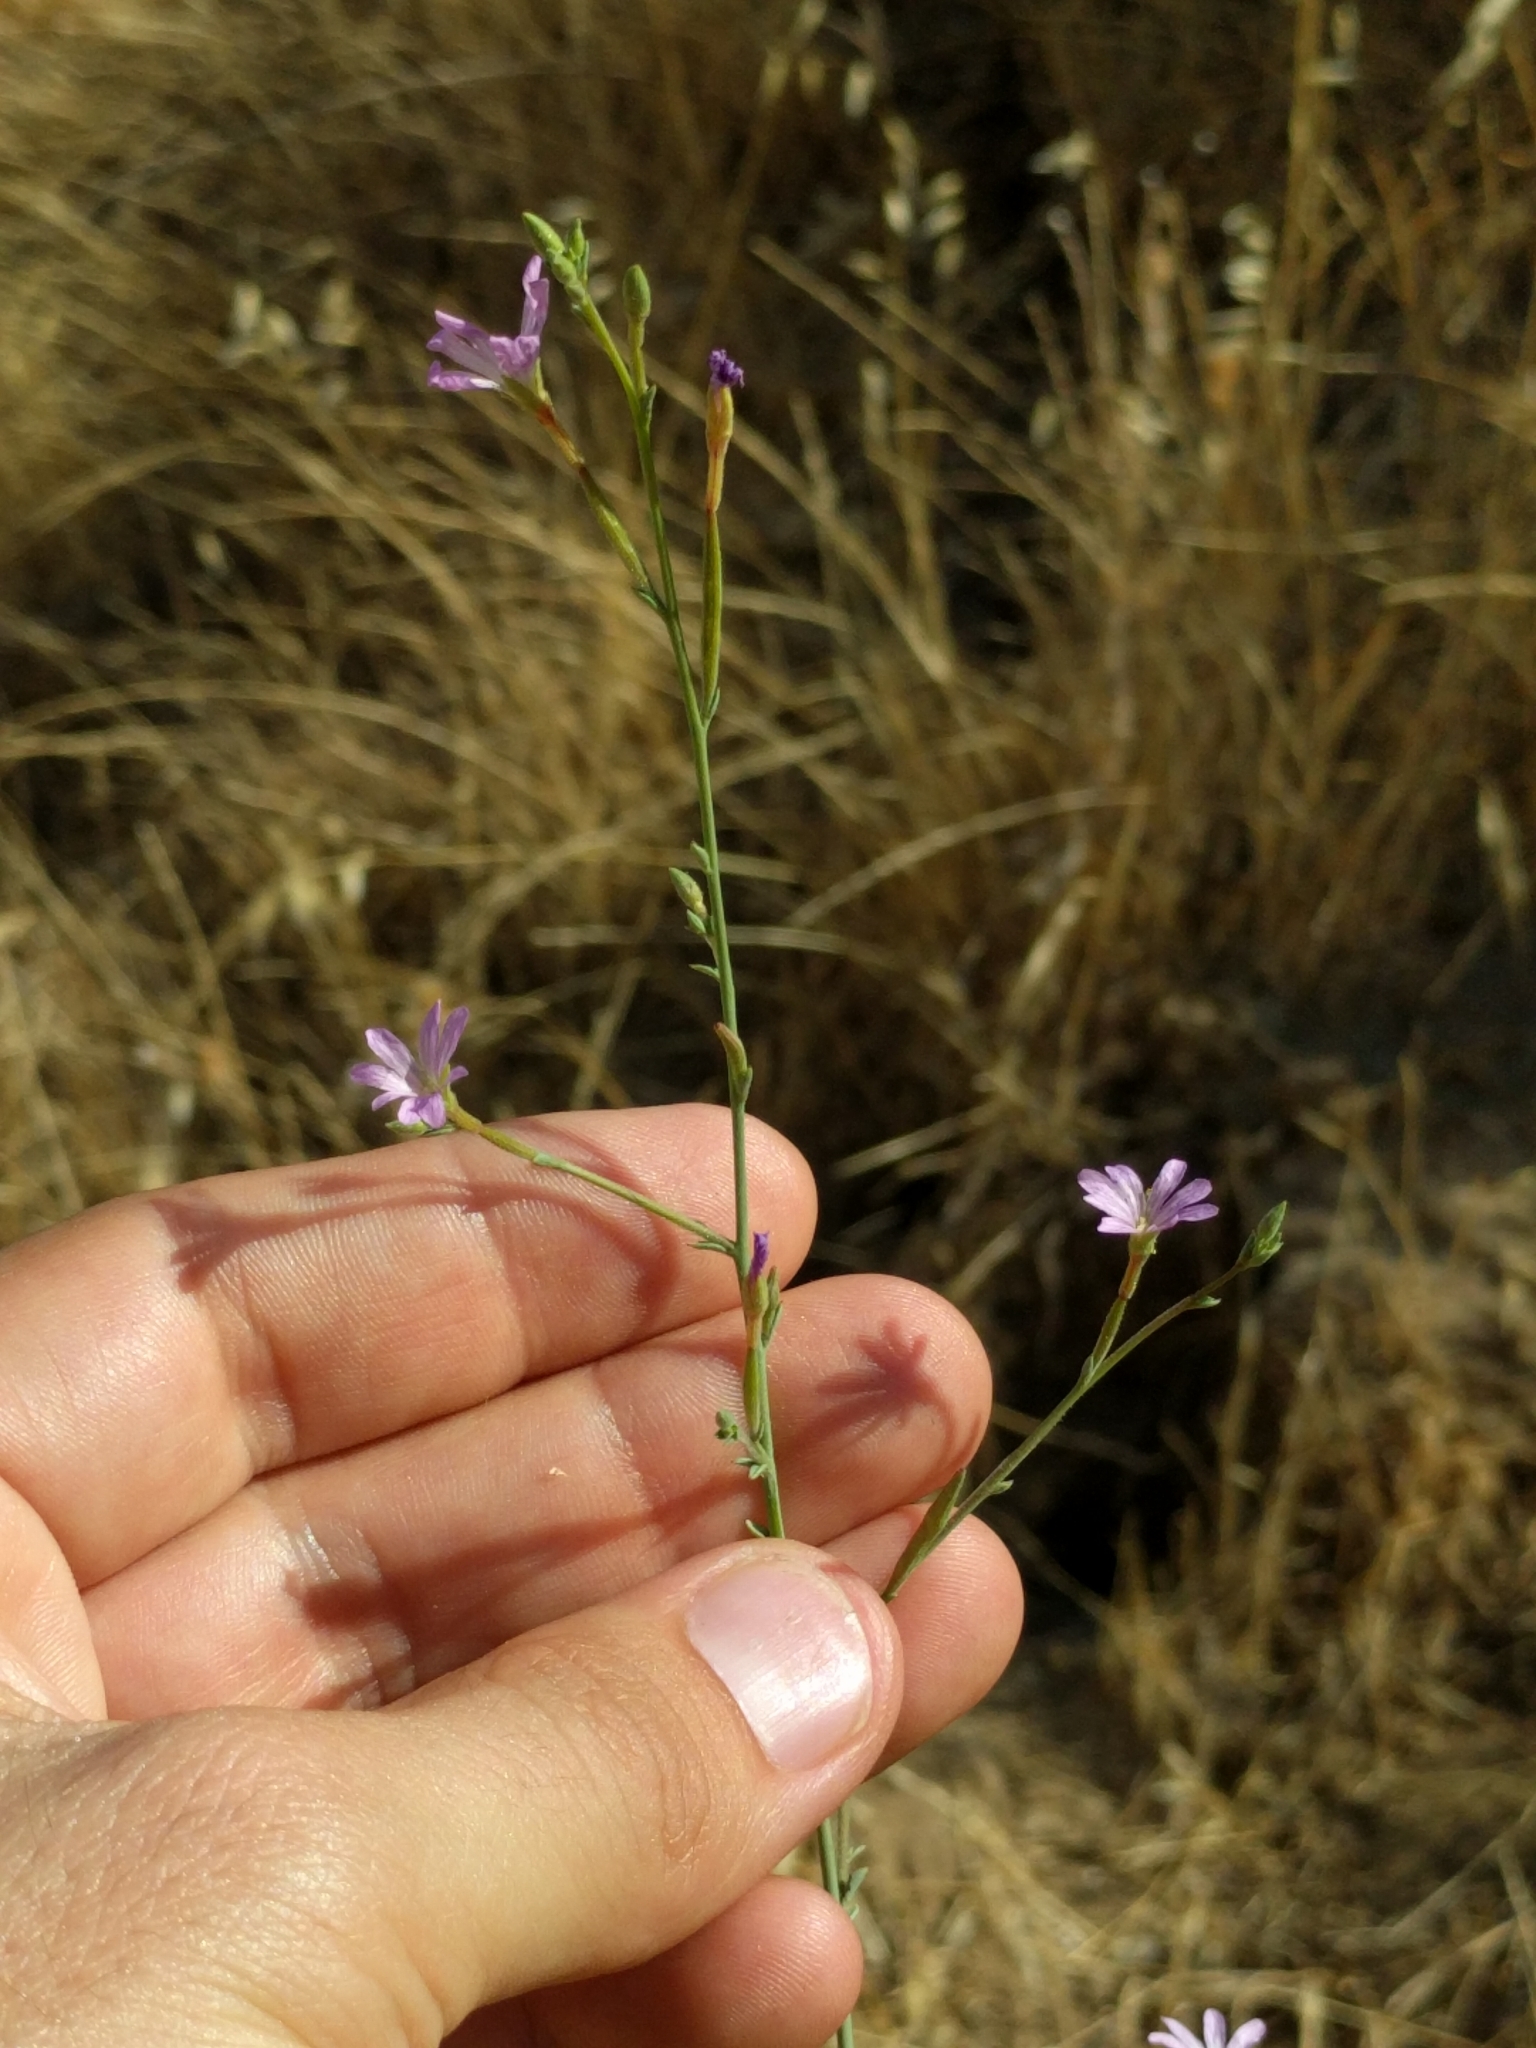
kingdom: Plantae
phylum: Tracheophyta
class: Magnoliopsida
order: Myrtales
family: Onagraceae
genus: Epilobium
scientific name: Epilobium brachycarpum
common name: Annual willowherb
